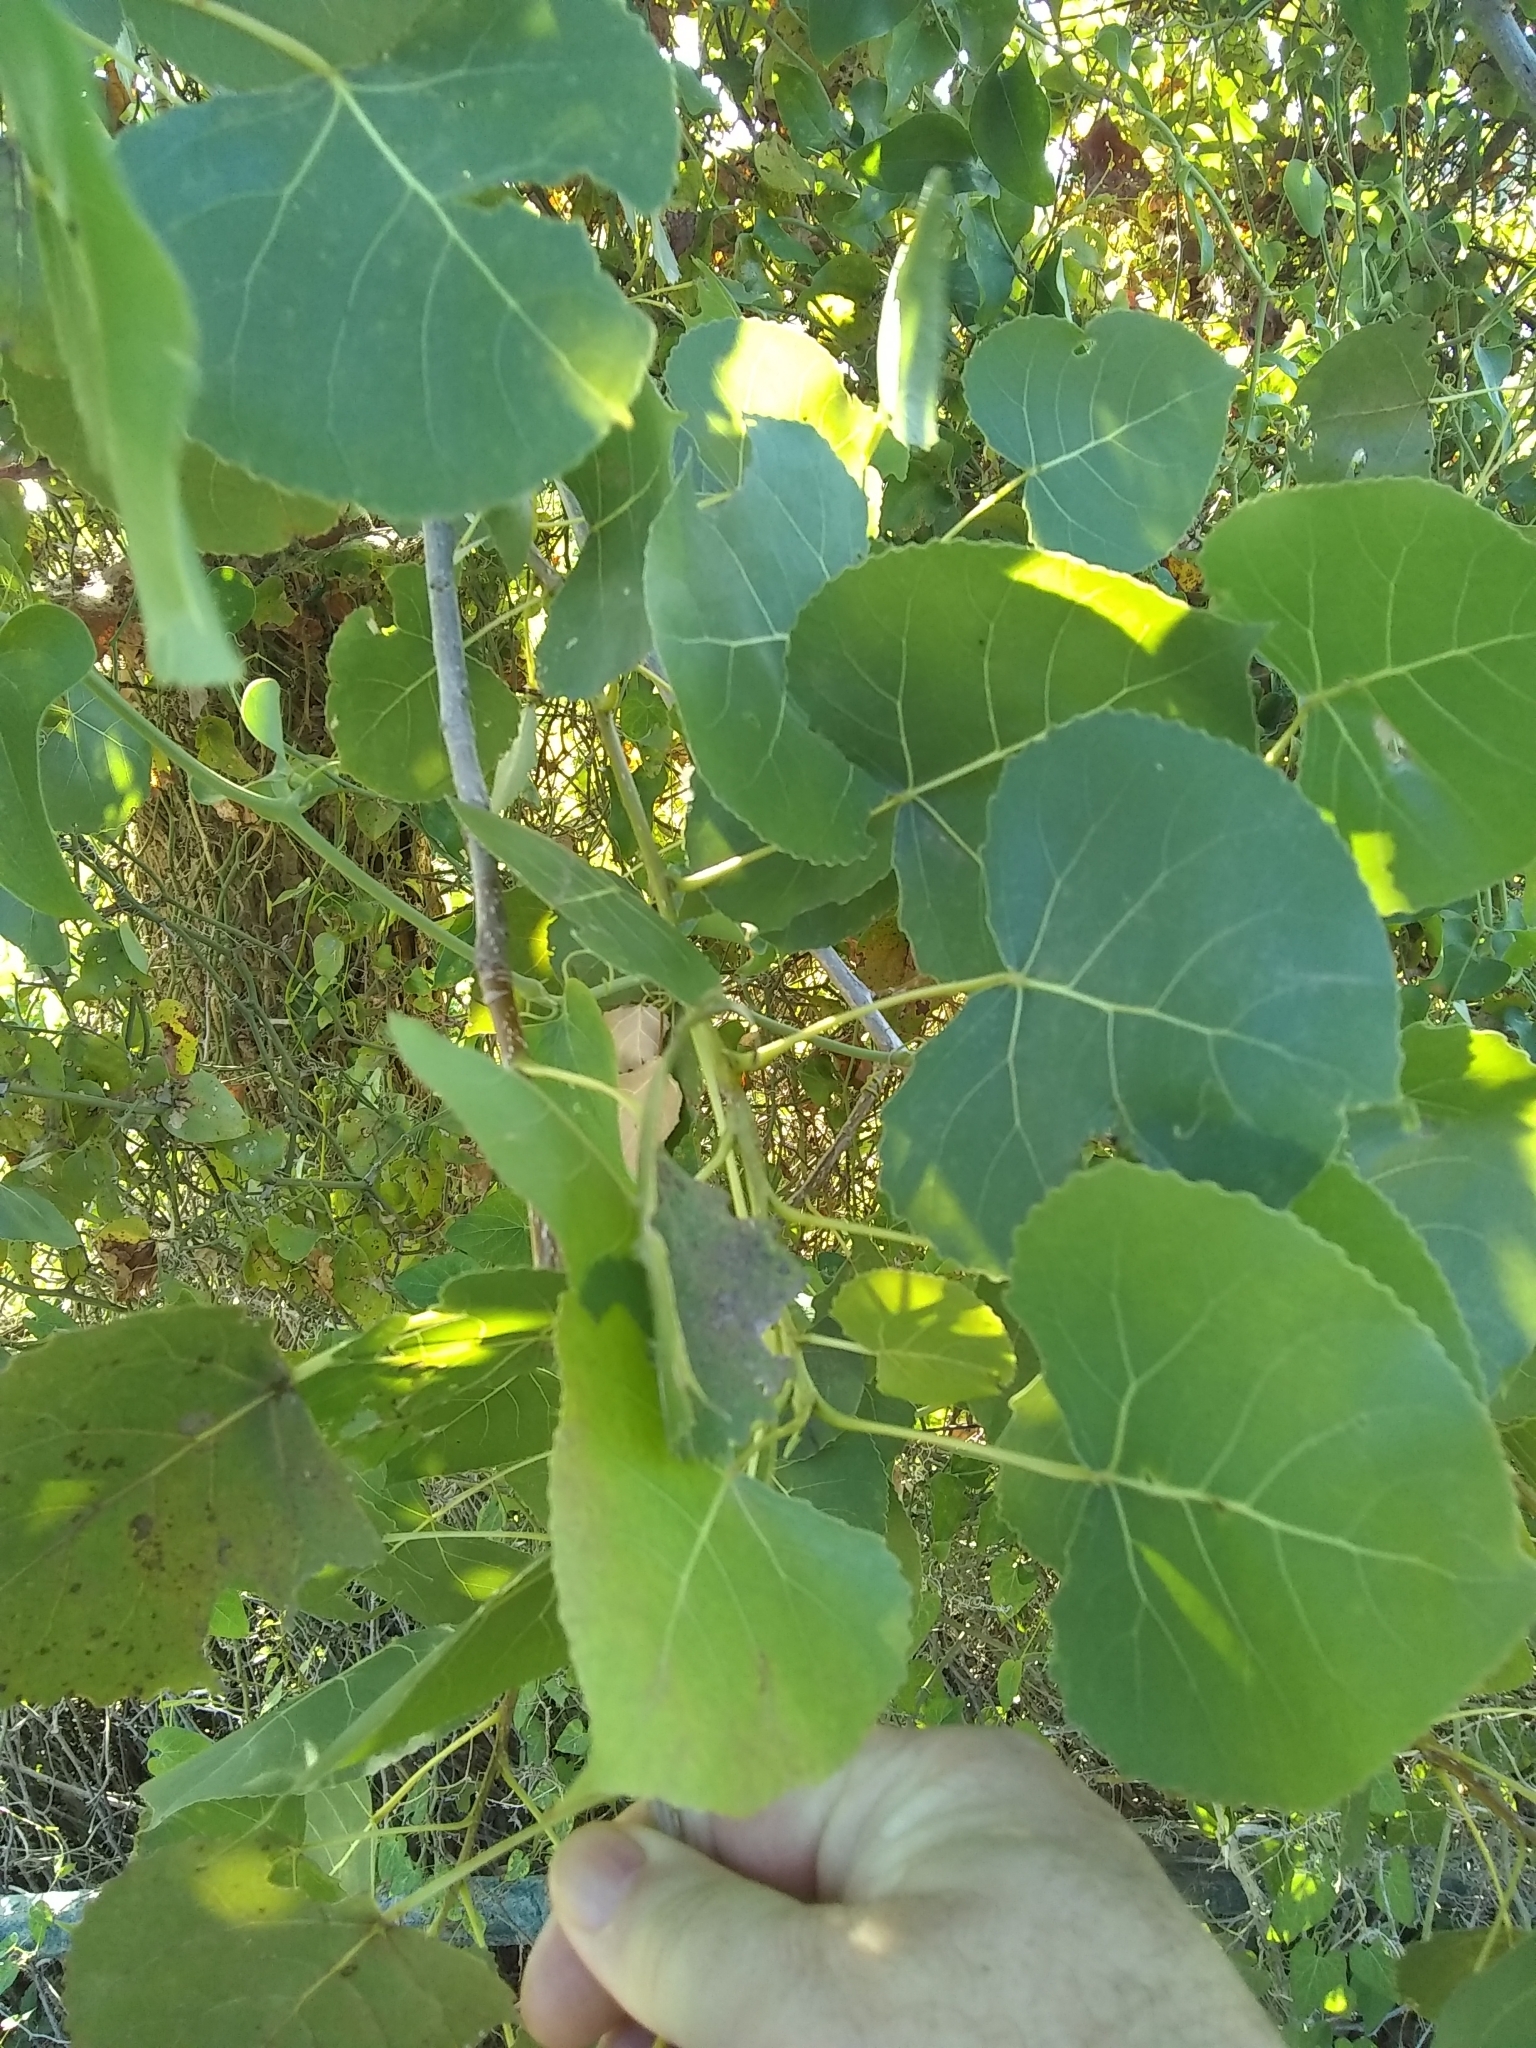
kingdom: Plantae
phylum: Tracheophyta
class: Magnoliopsida
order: Malpighiales
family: Salicaceae
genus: Populus
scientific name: Populus deltoides
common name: Eastern cottonwood
